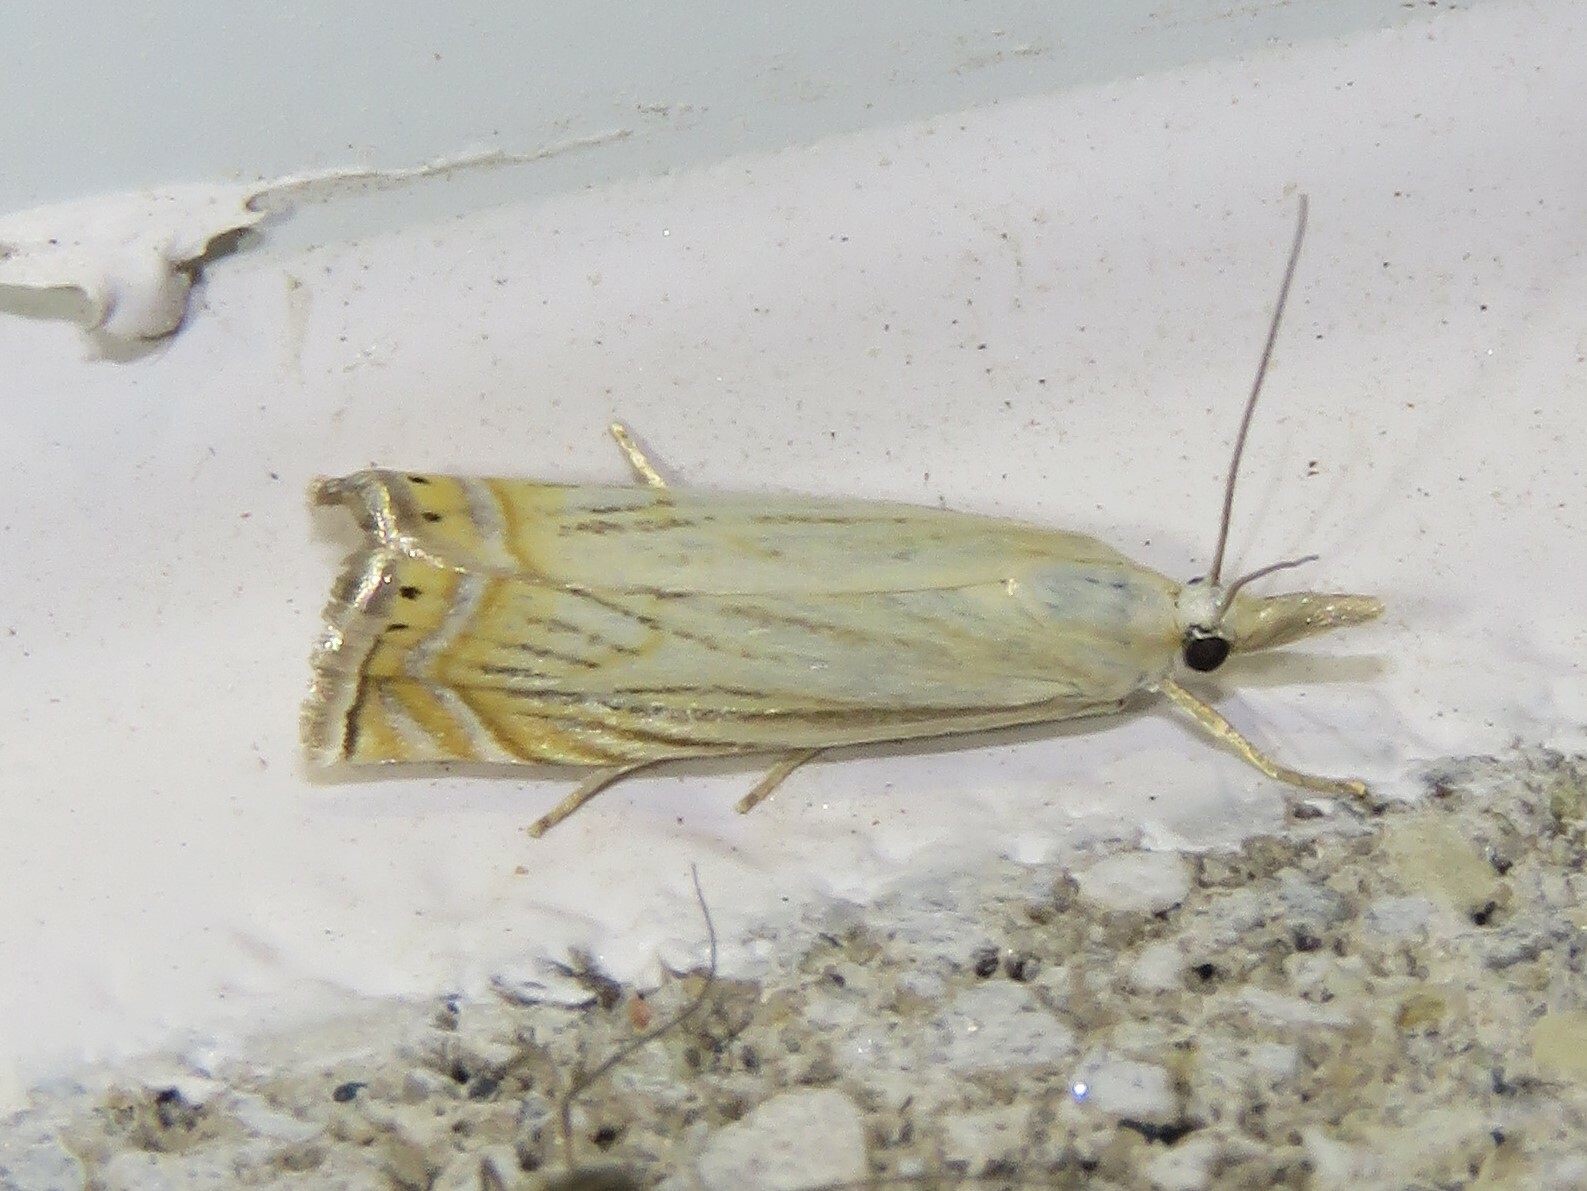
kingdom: Animalia
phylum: Arthropoda
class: Insecta
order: Lepidoptera
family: Crambidae
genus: Chrysoteuchia
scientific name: Chrysoteuchia topiarius
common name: Topiary grass-veneer
